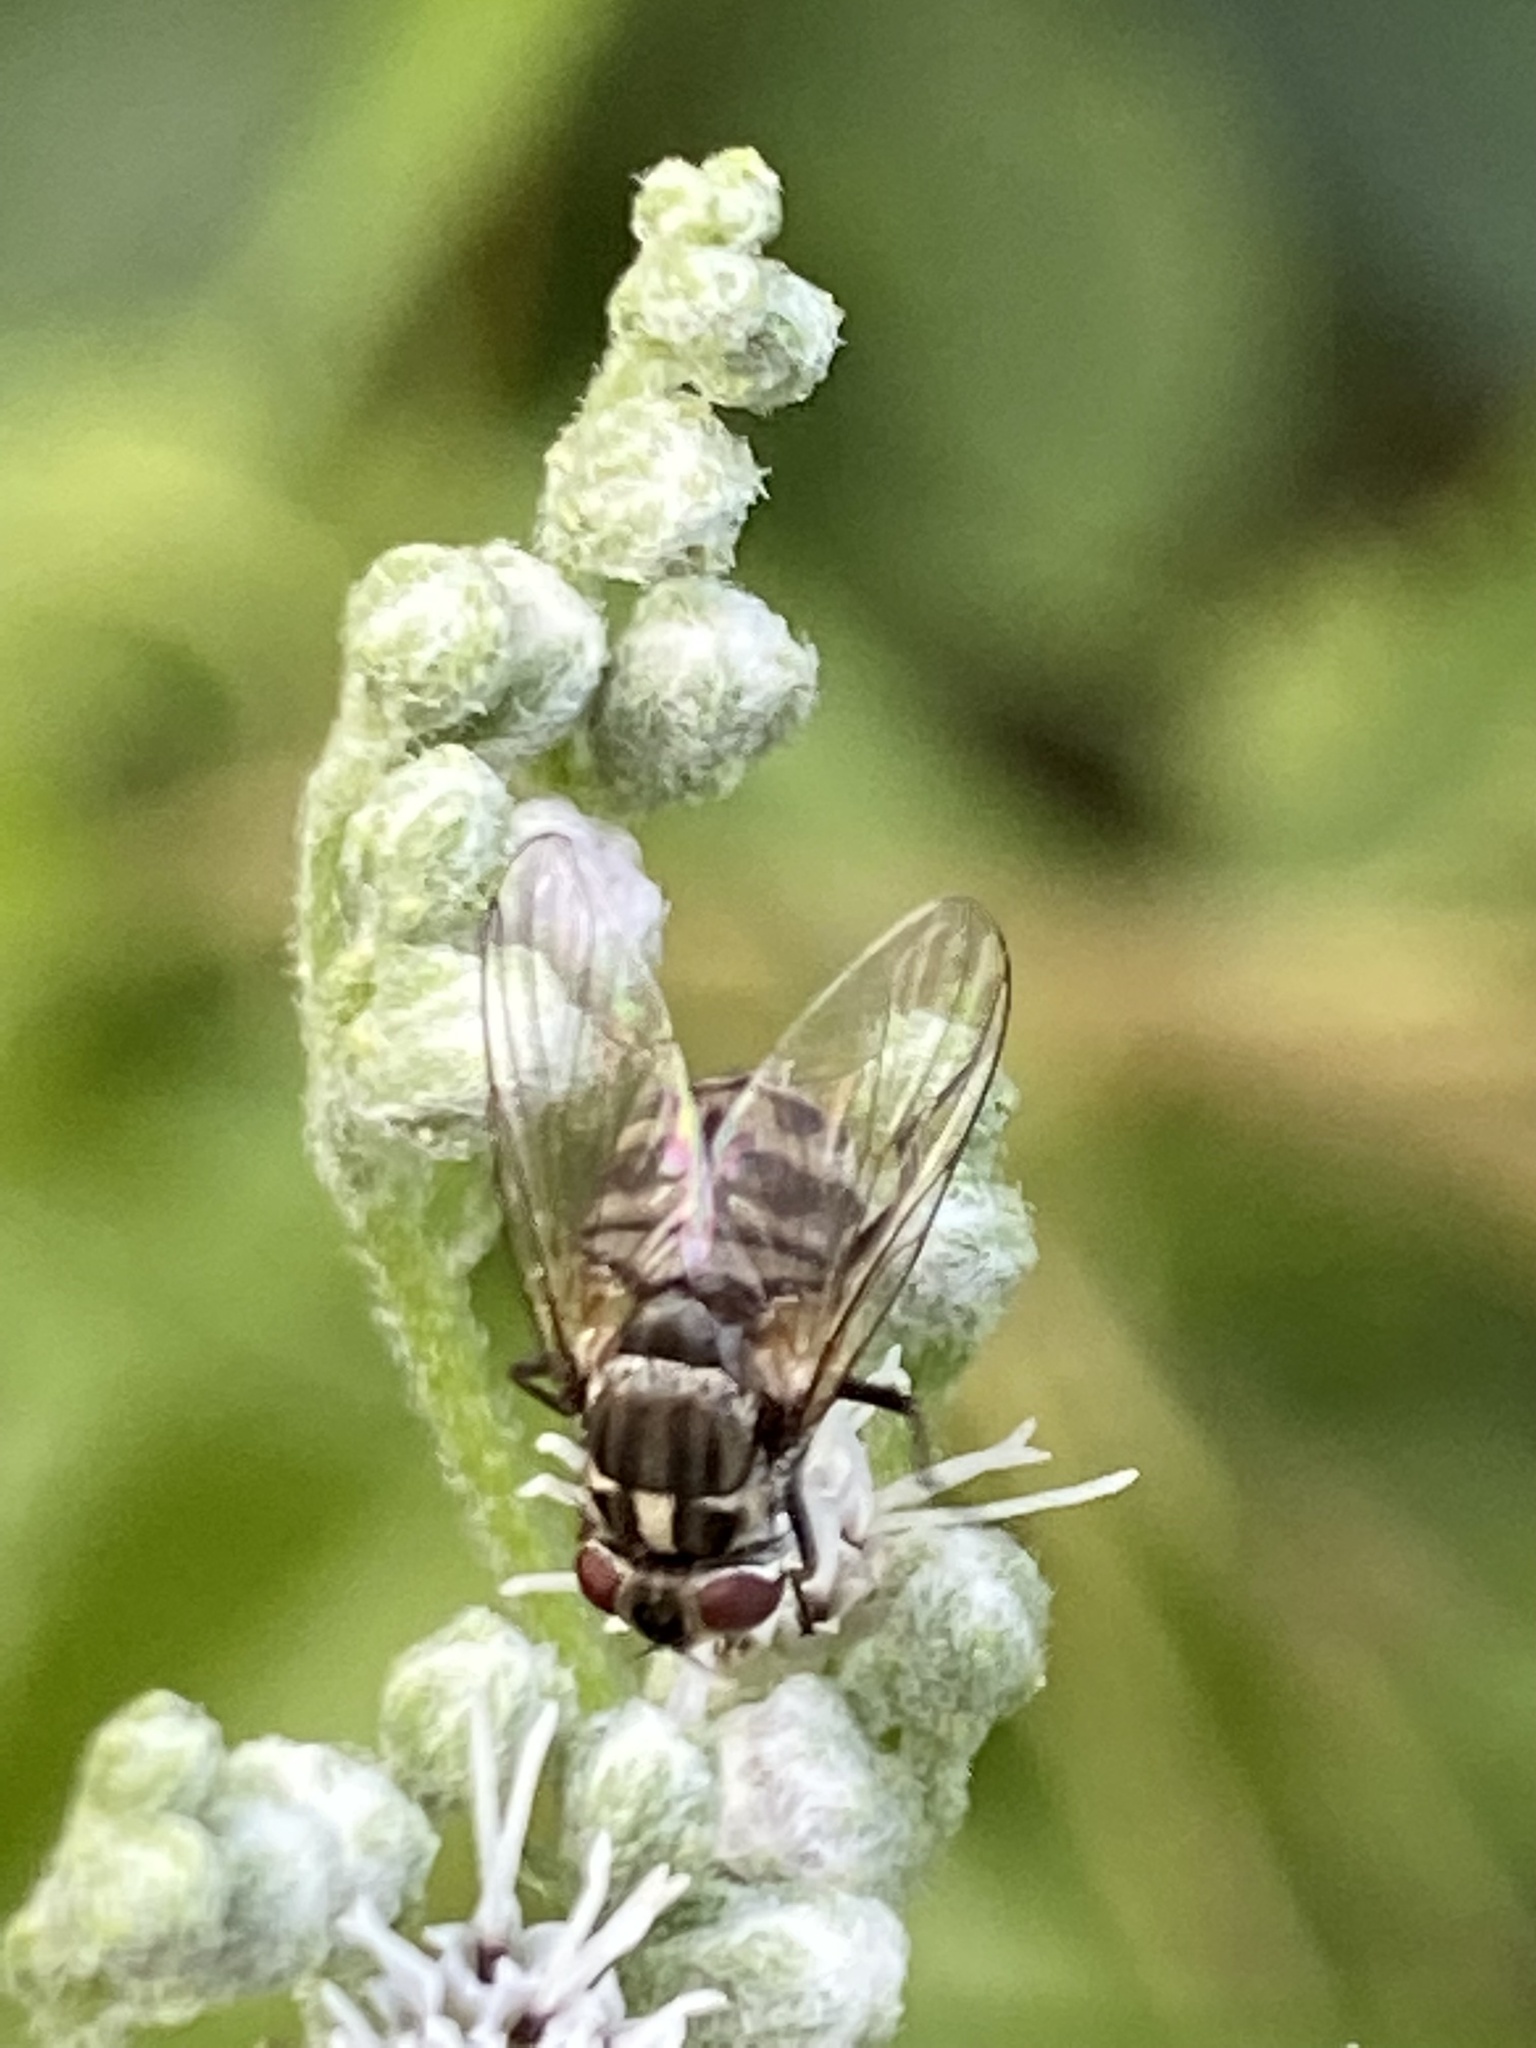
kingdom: Animalia
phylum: Arthropoda
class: Insecta
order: Diptera
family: Muscidae
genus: Stomoxys
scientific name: Stomoxys calcitrans
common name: Stable fly
